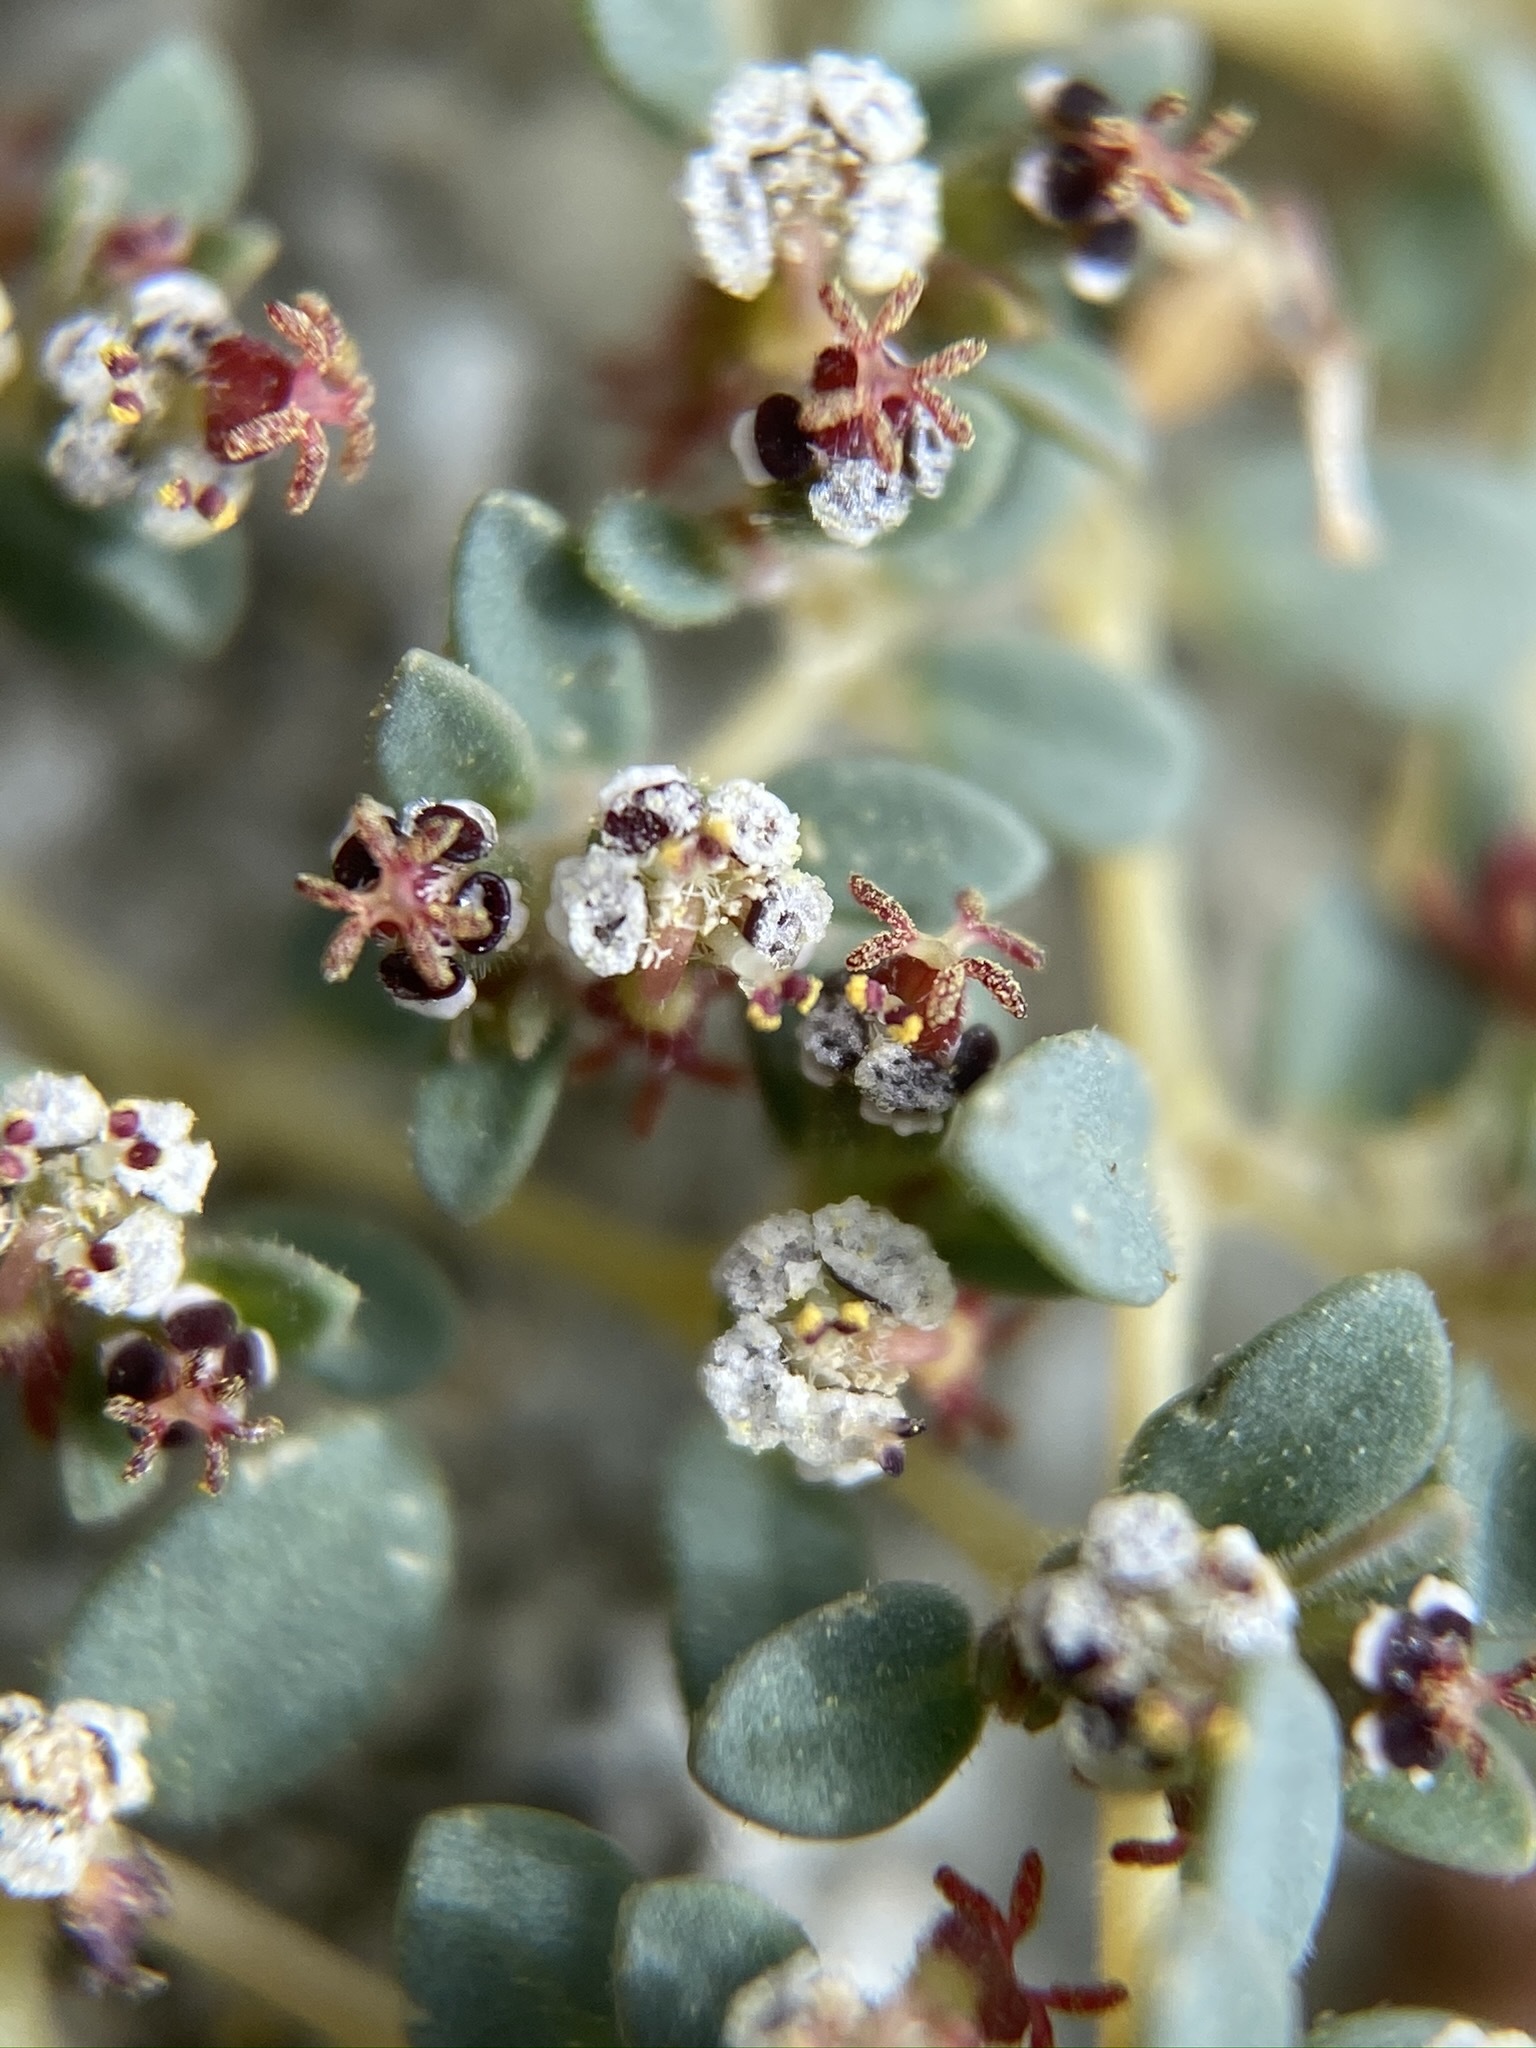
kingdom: Plantae
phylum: Tracheophyta
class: Magnoliopsida
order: Malpighiales
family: Euphorbiaceae
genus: Euphorbia
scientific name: Euphorbia polycarpa
